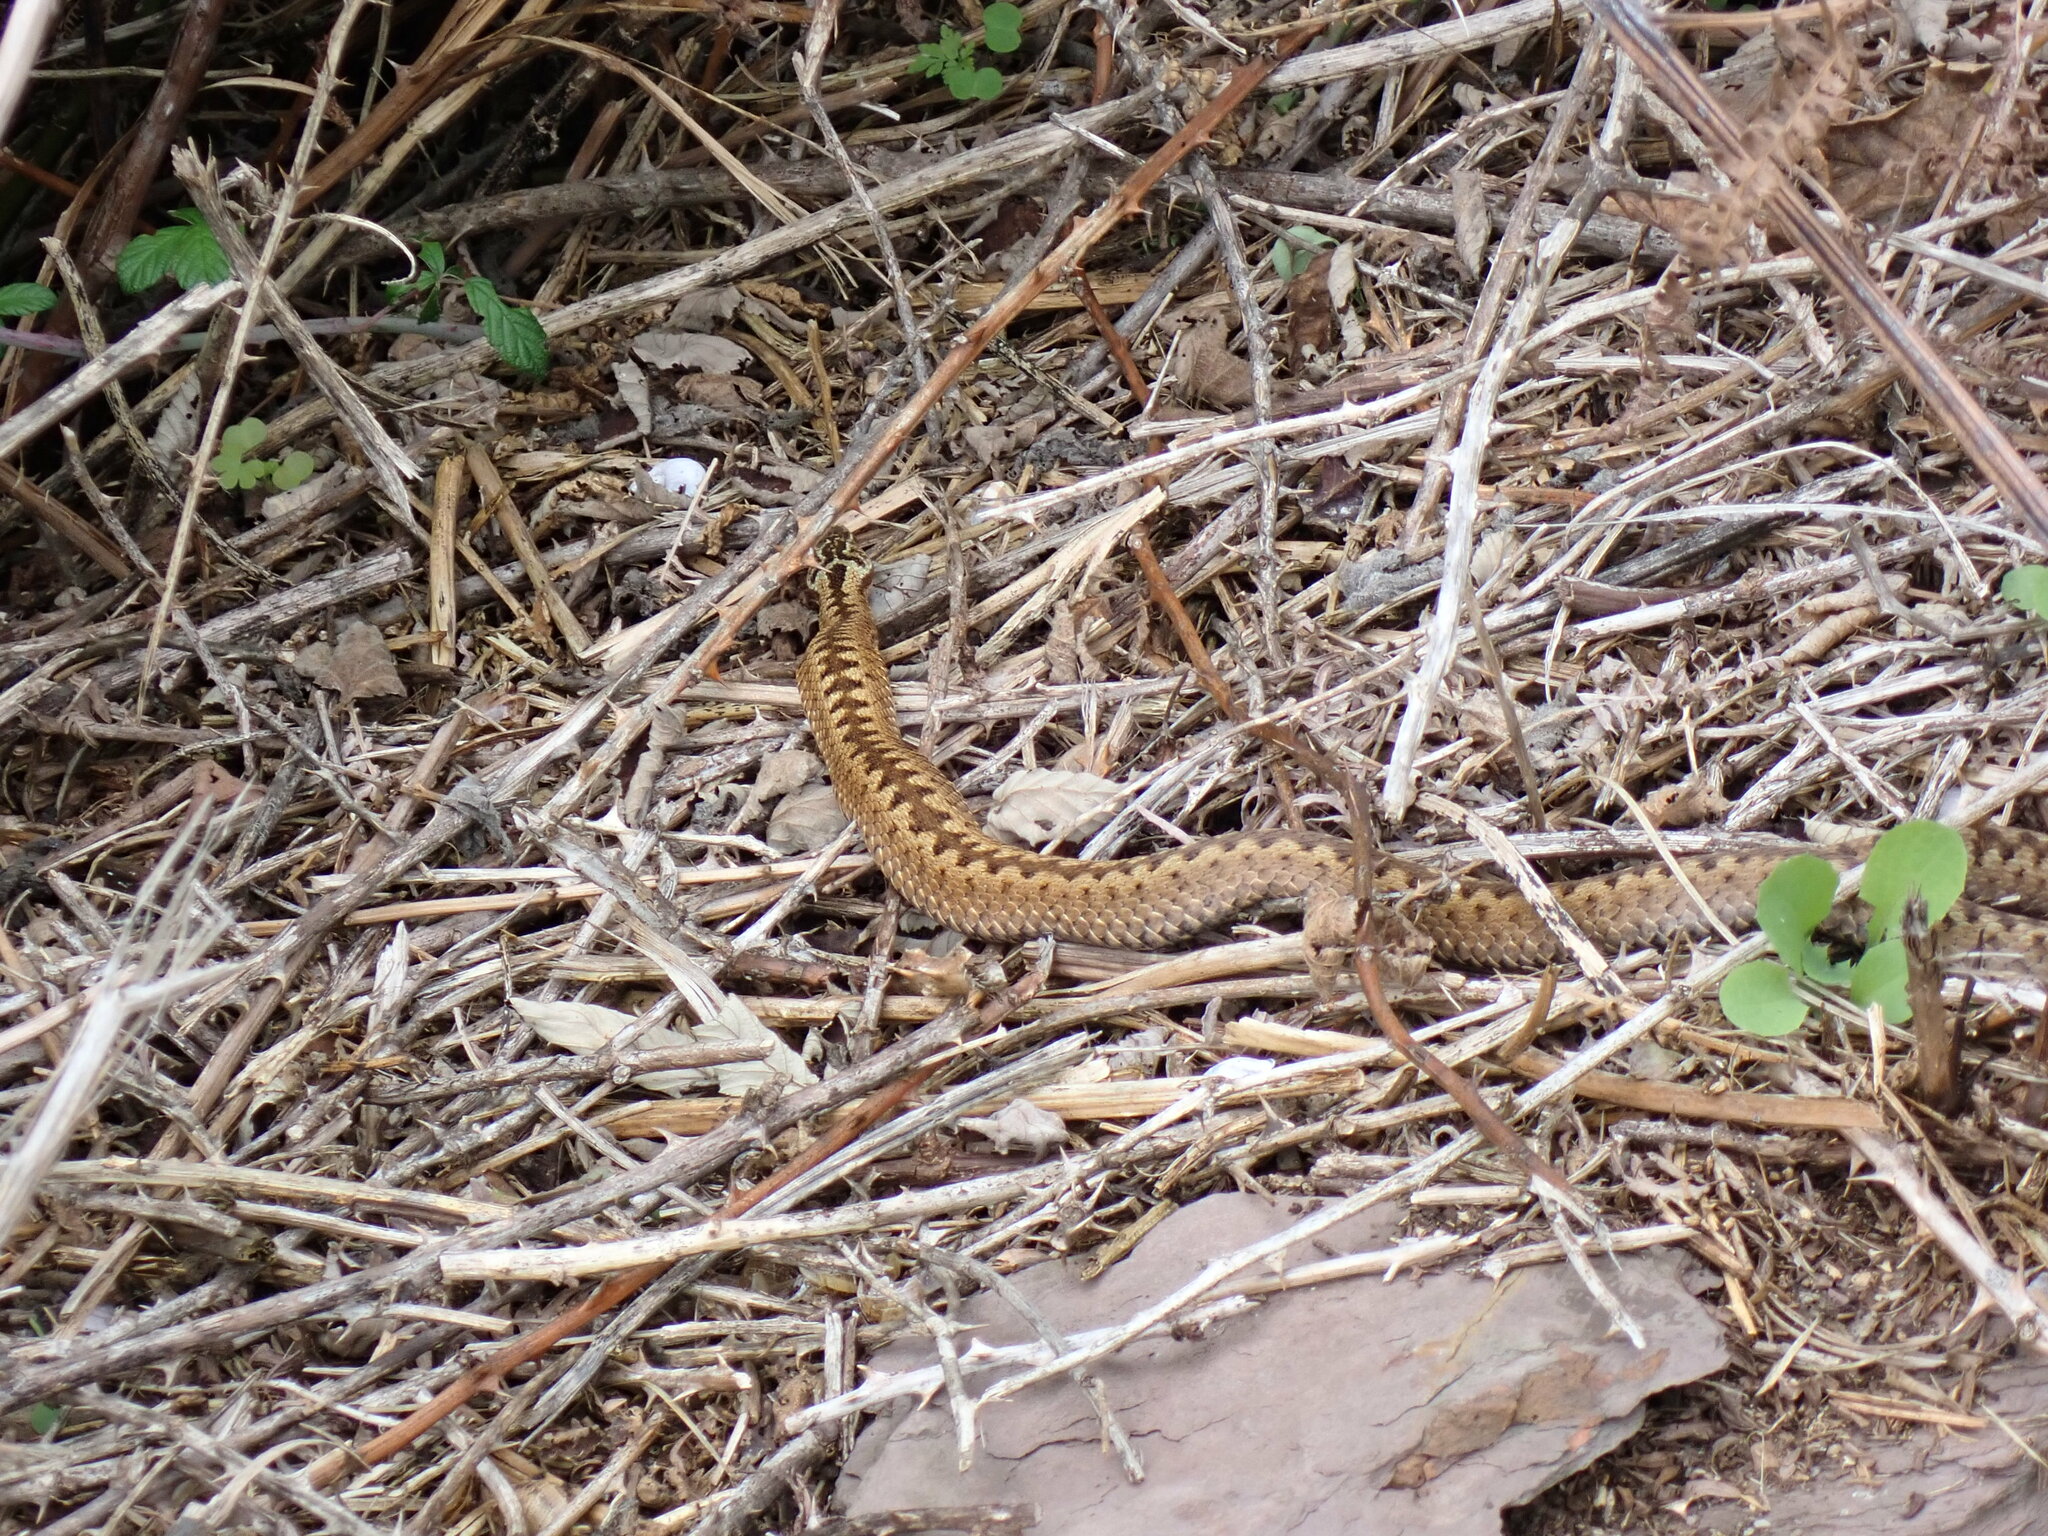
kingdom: Animalia
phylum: Chordata
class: Squamata
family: Viperidae
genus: Vipera
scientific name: Vipera berus
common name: Adder
